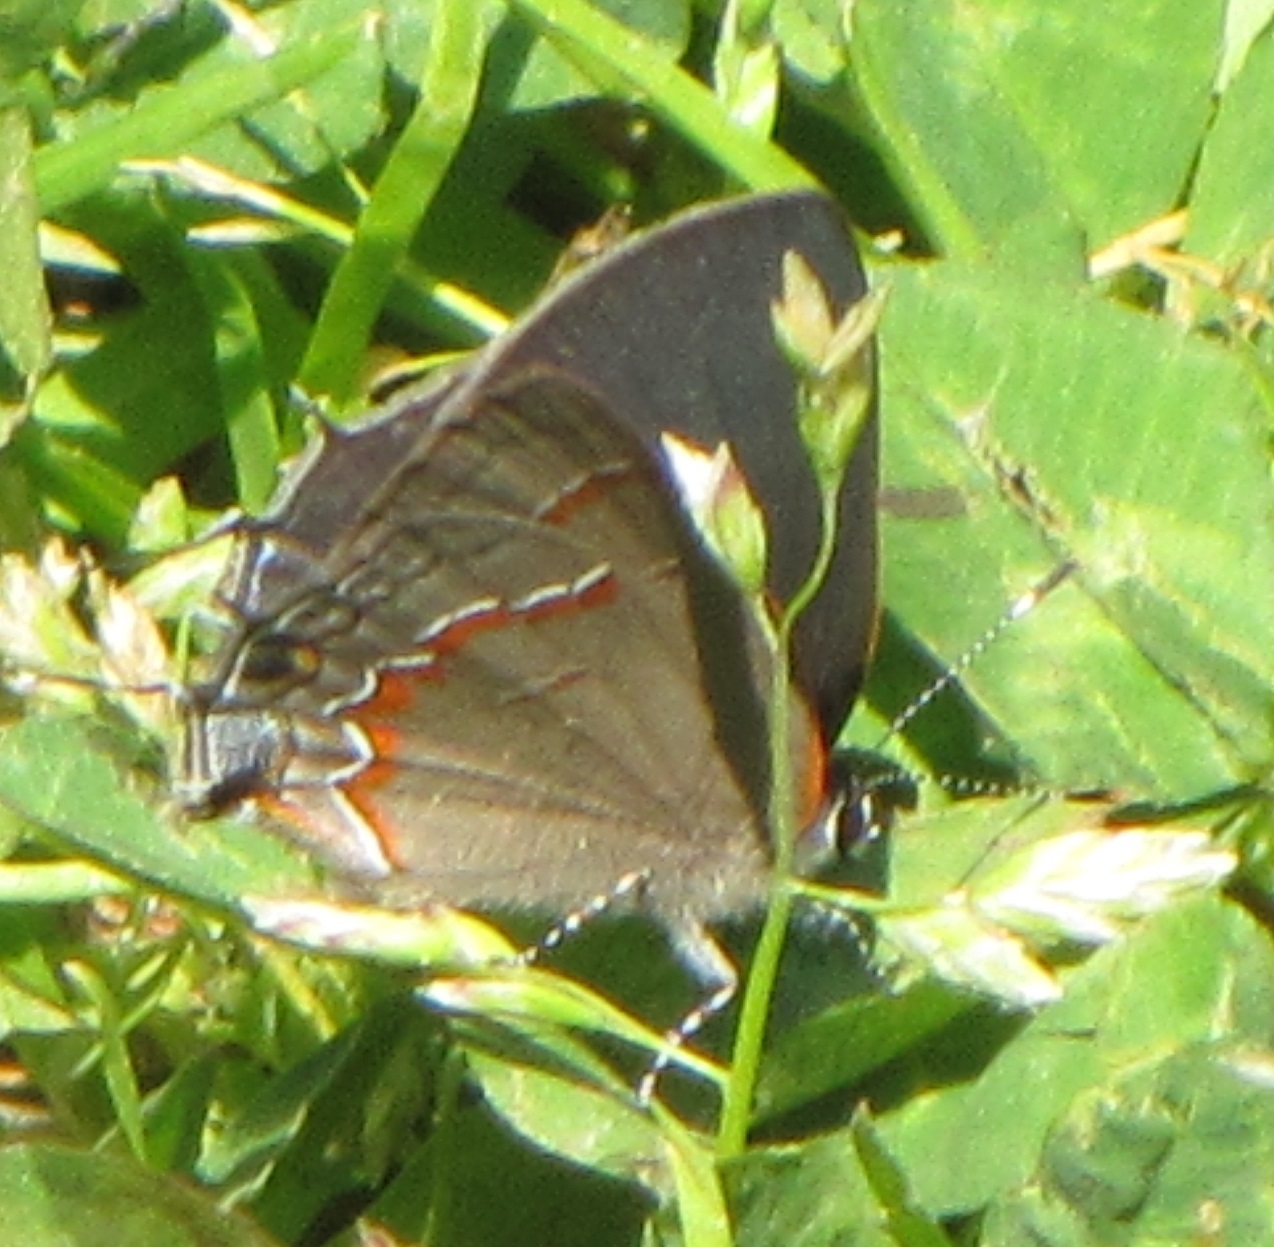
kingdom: Animalia
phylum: Arthropoda
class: Insecta
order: Lepidoptera
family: Lycaenidae
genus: Calycopis
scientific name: Calycopis cecrops
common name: Red-banded hairstreak
